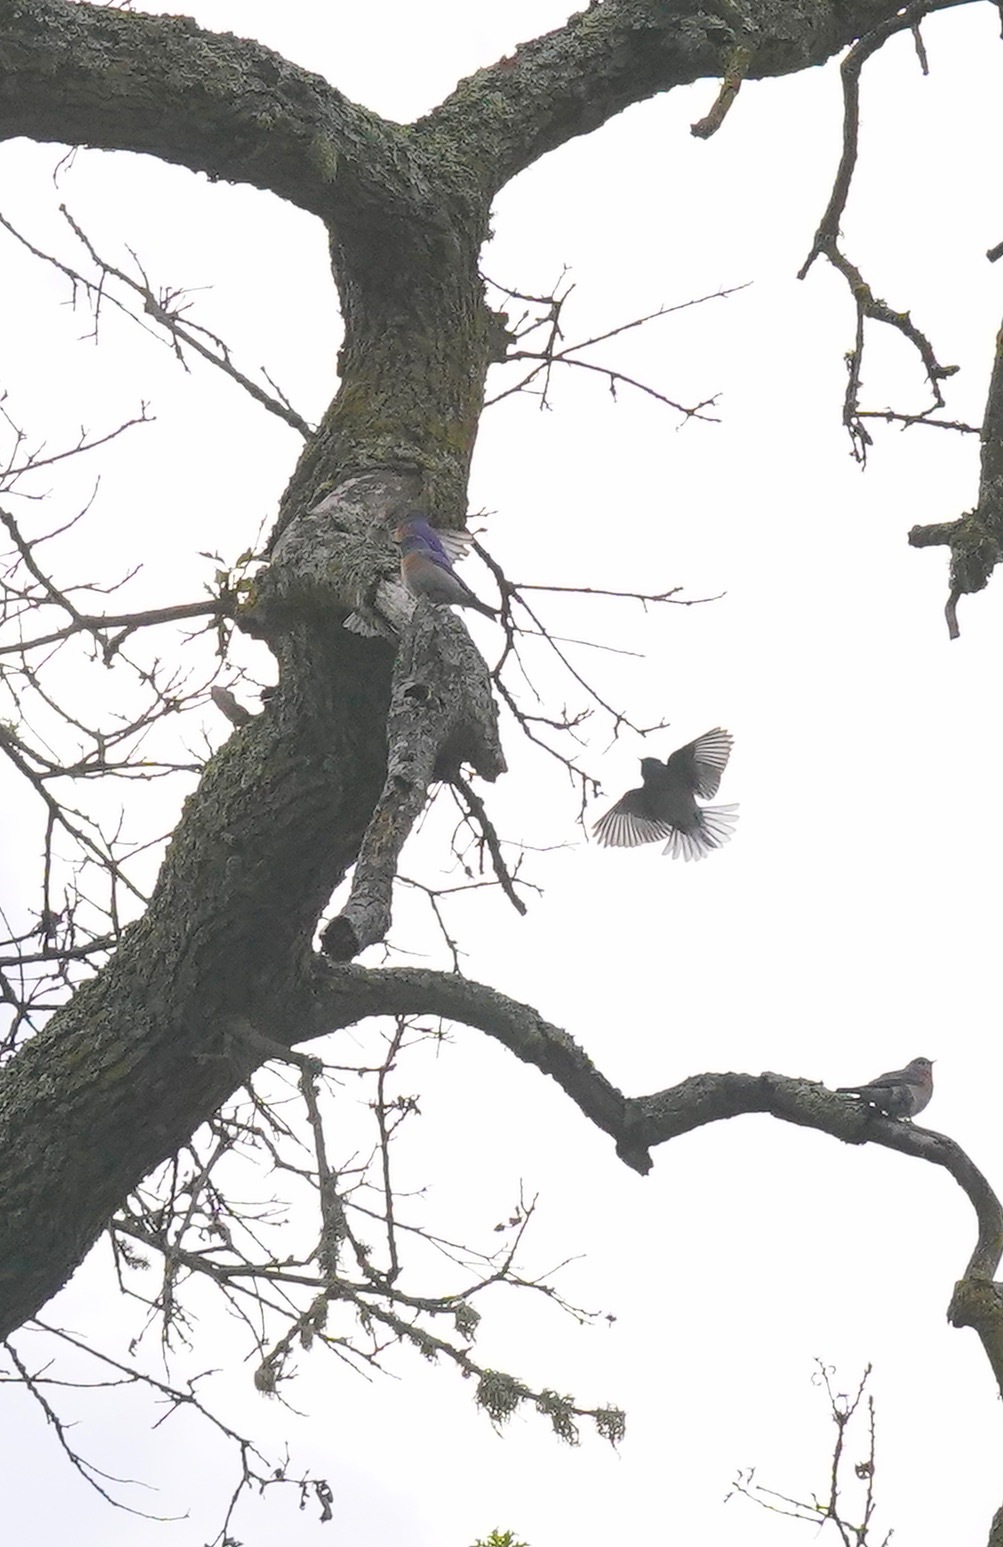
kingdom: Animalia
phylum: Chordata
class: Aves
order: Passeriformes
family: Turdidae
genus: Sialia
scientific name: Sialia mexicana
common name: Western bluebird
